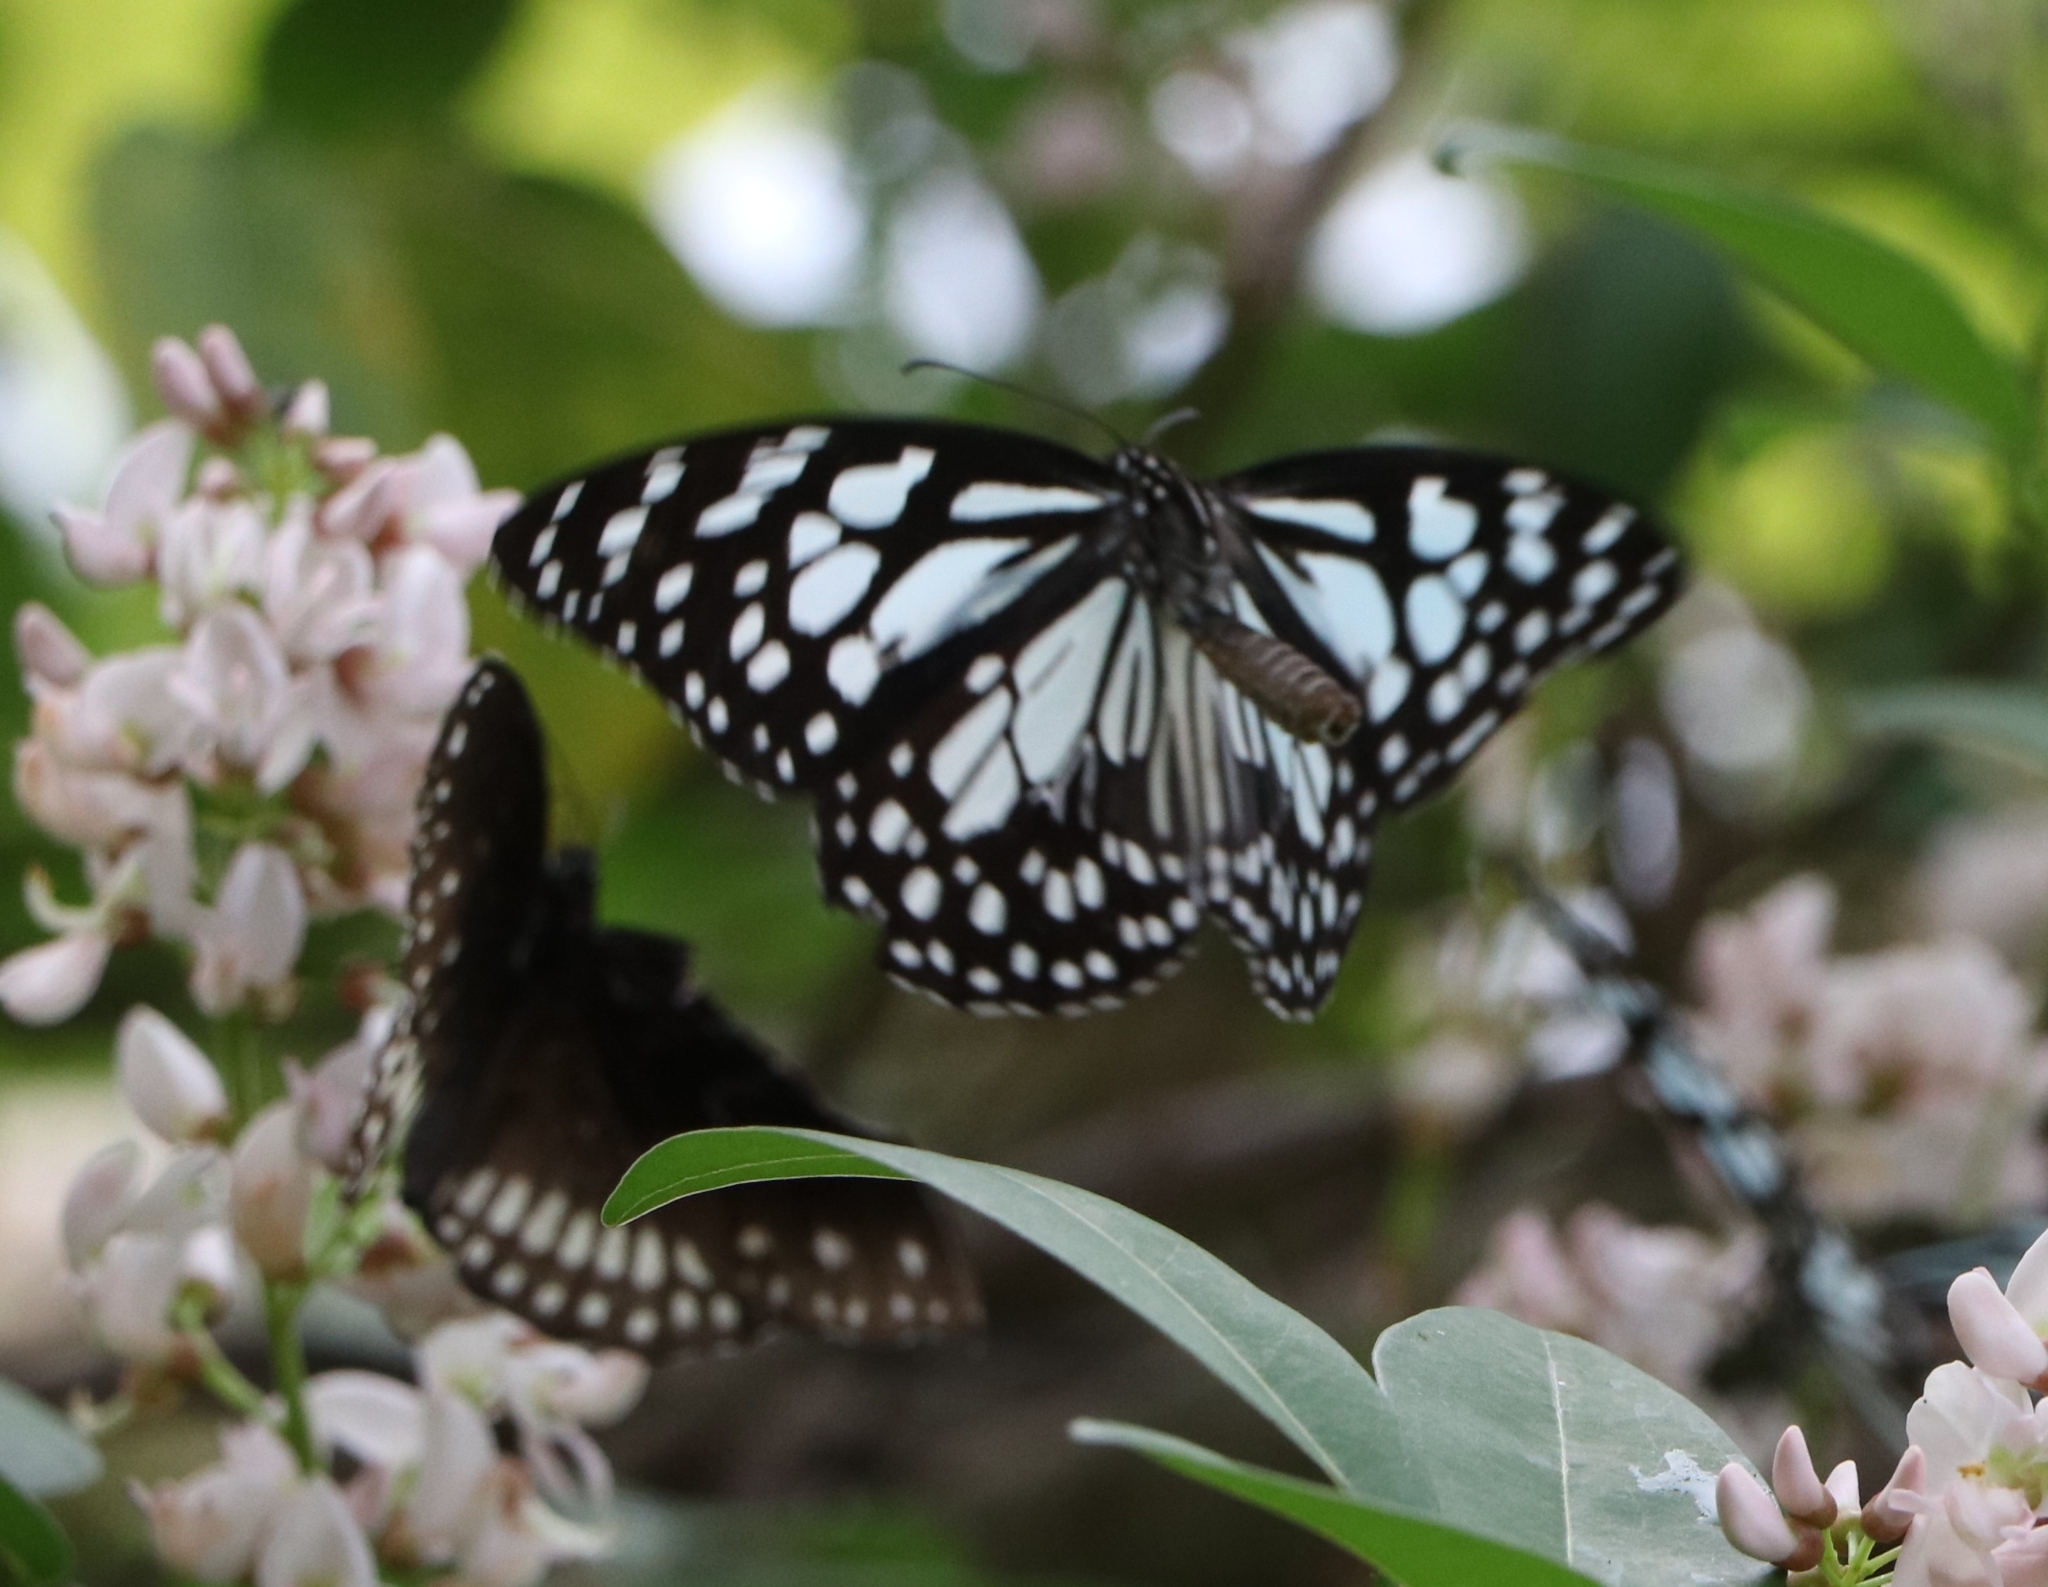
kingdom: Animalia
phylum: Arthropoda
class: Insecta
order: Lepidoptera
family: Nymphalidae
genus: Tirumala
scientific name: Tirumala limniace
